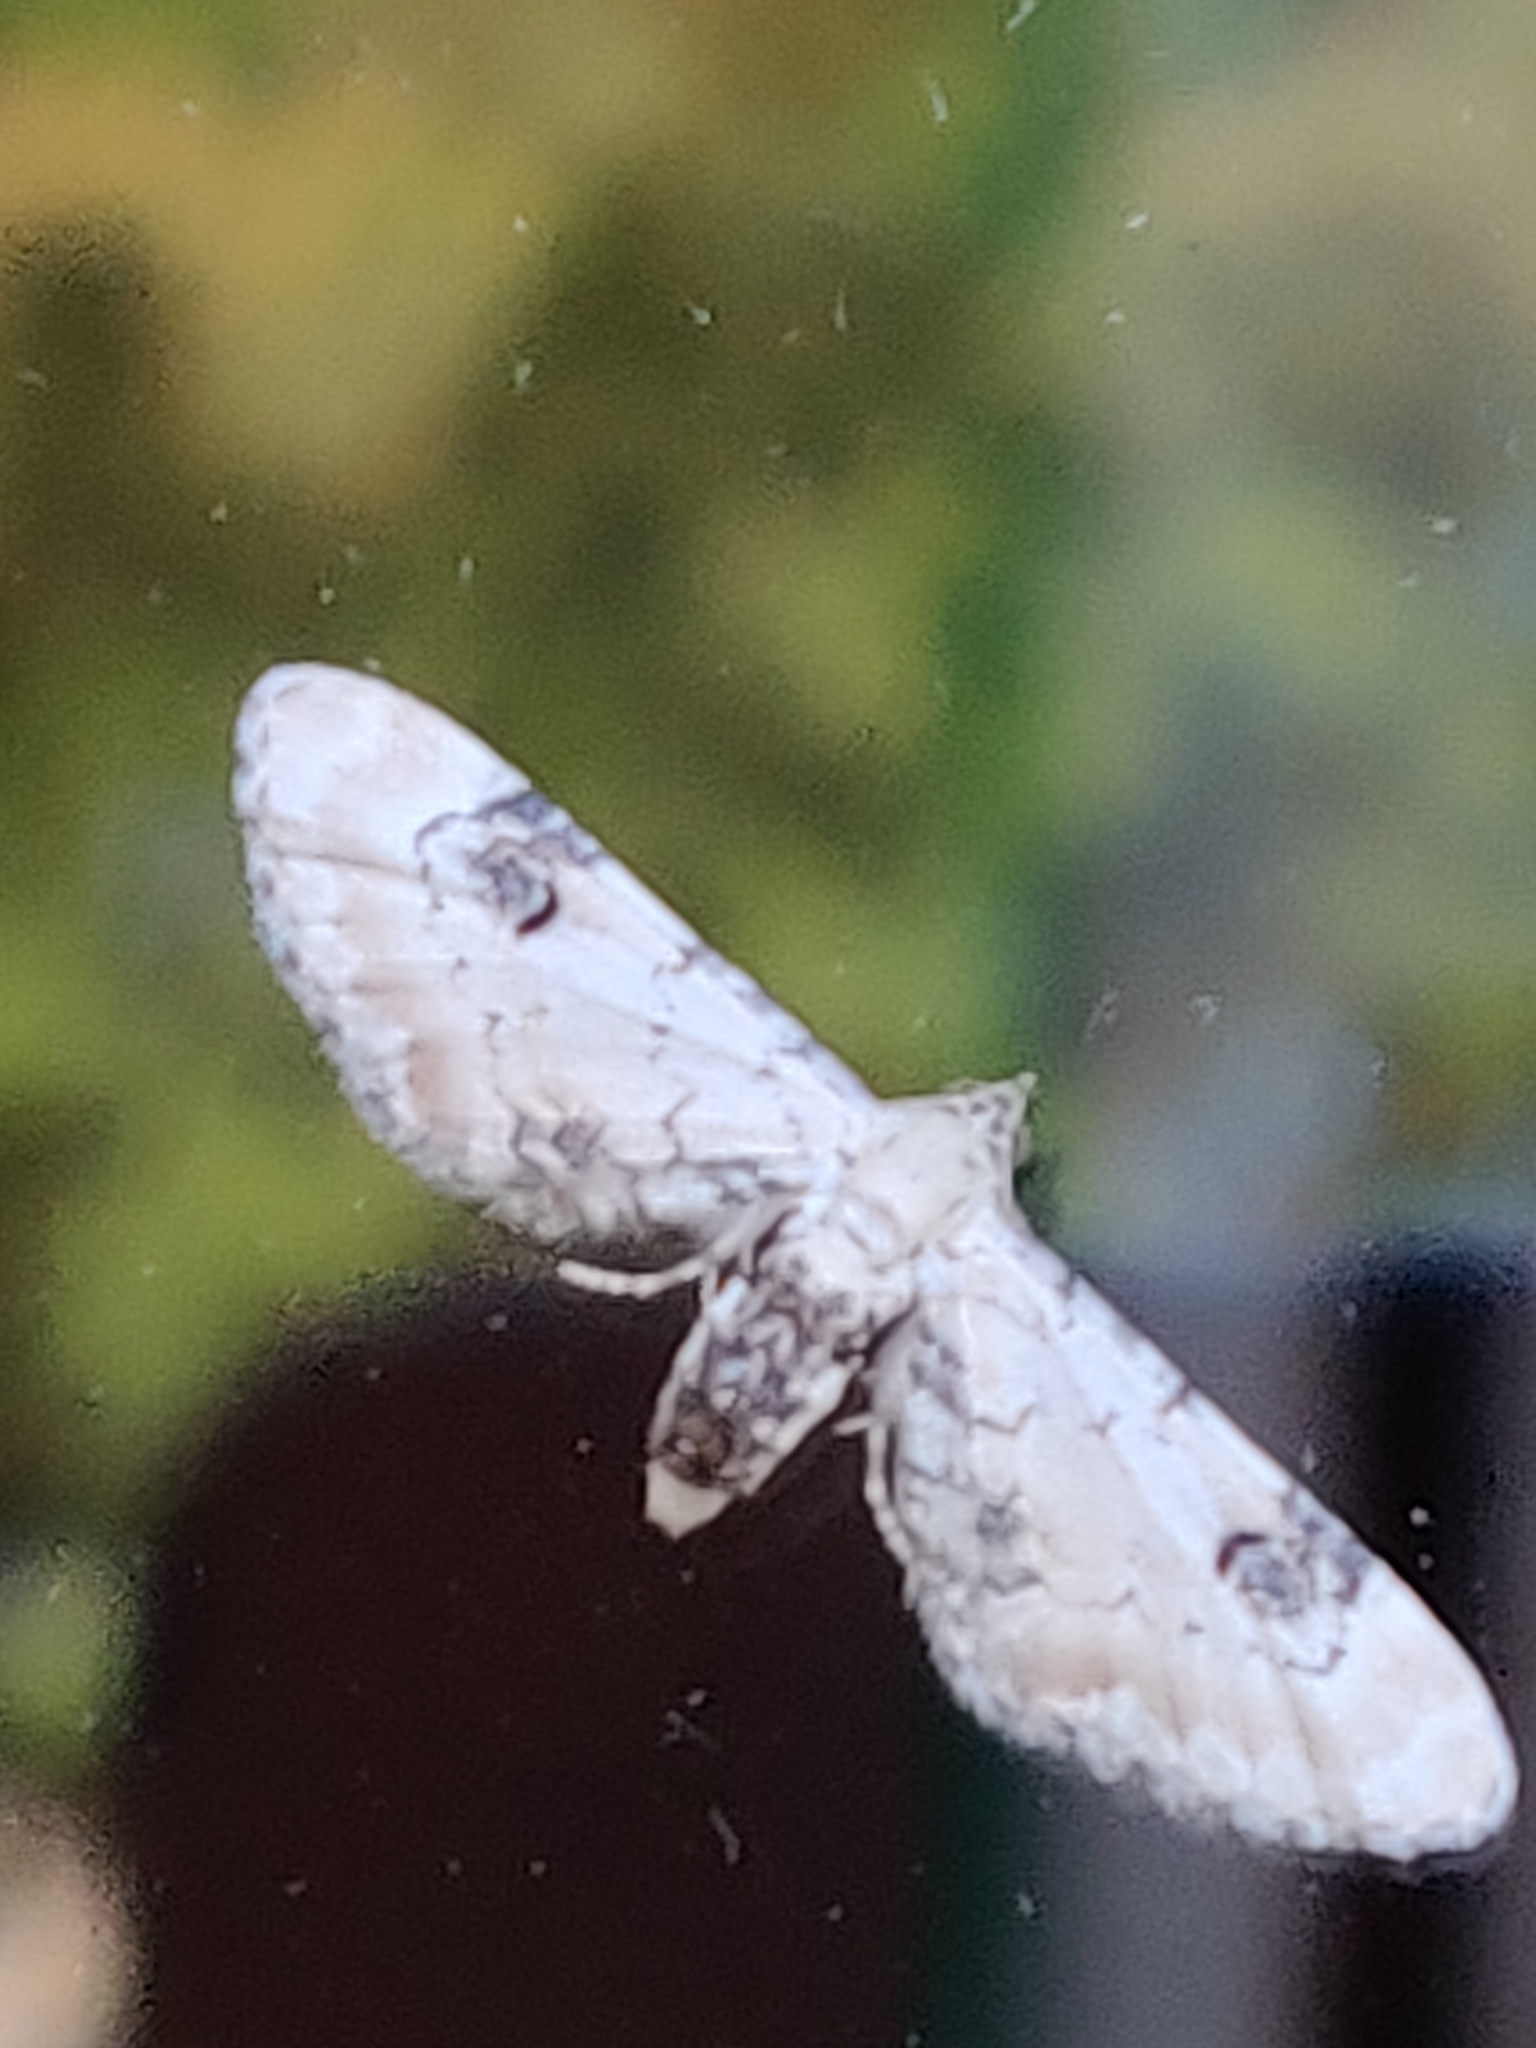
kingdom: Animalia
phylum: Arthropoda
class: Insecta
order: Lepidoptera
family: Geometridae
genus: Eupithecia
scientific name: Eupithecia centaureata
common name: Lime-speck pug
